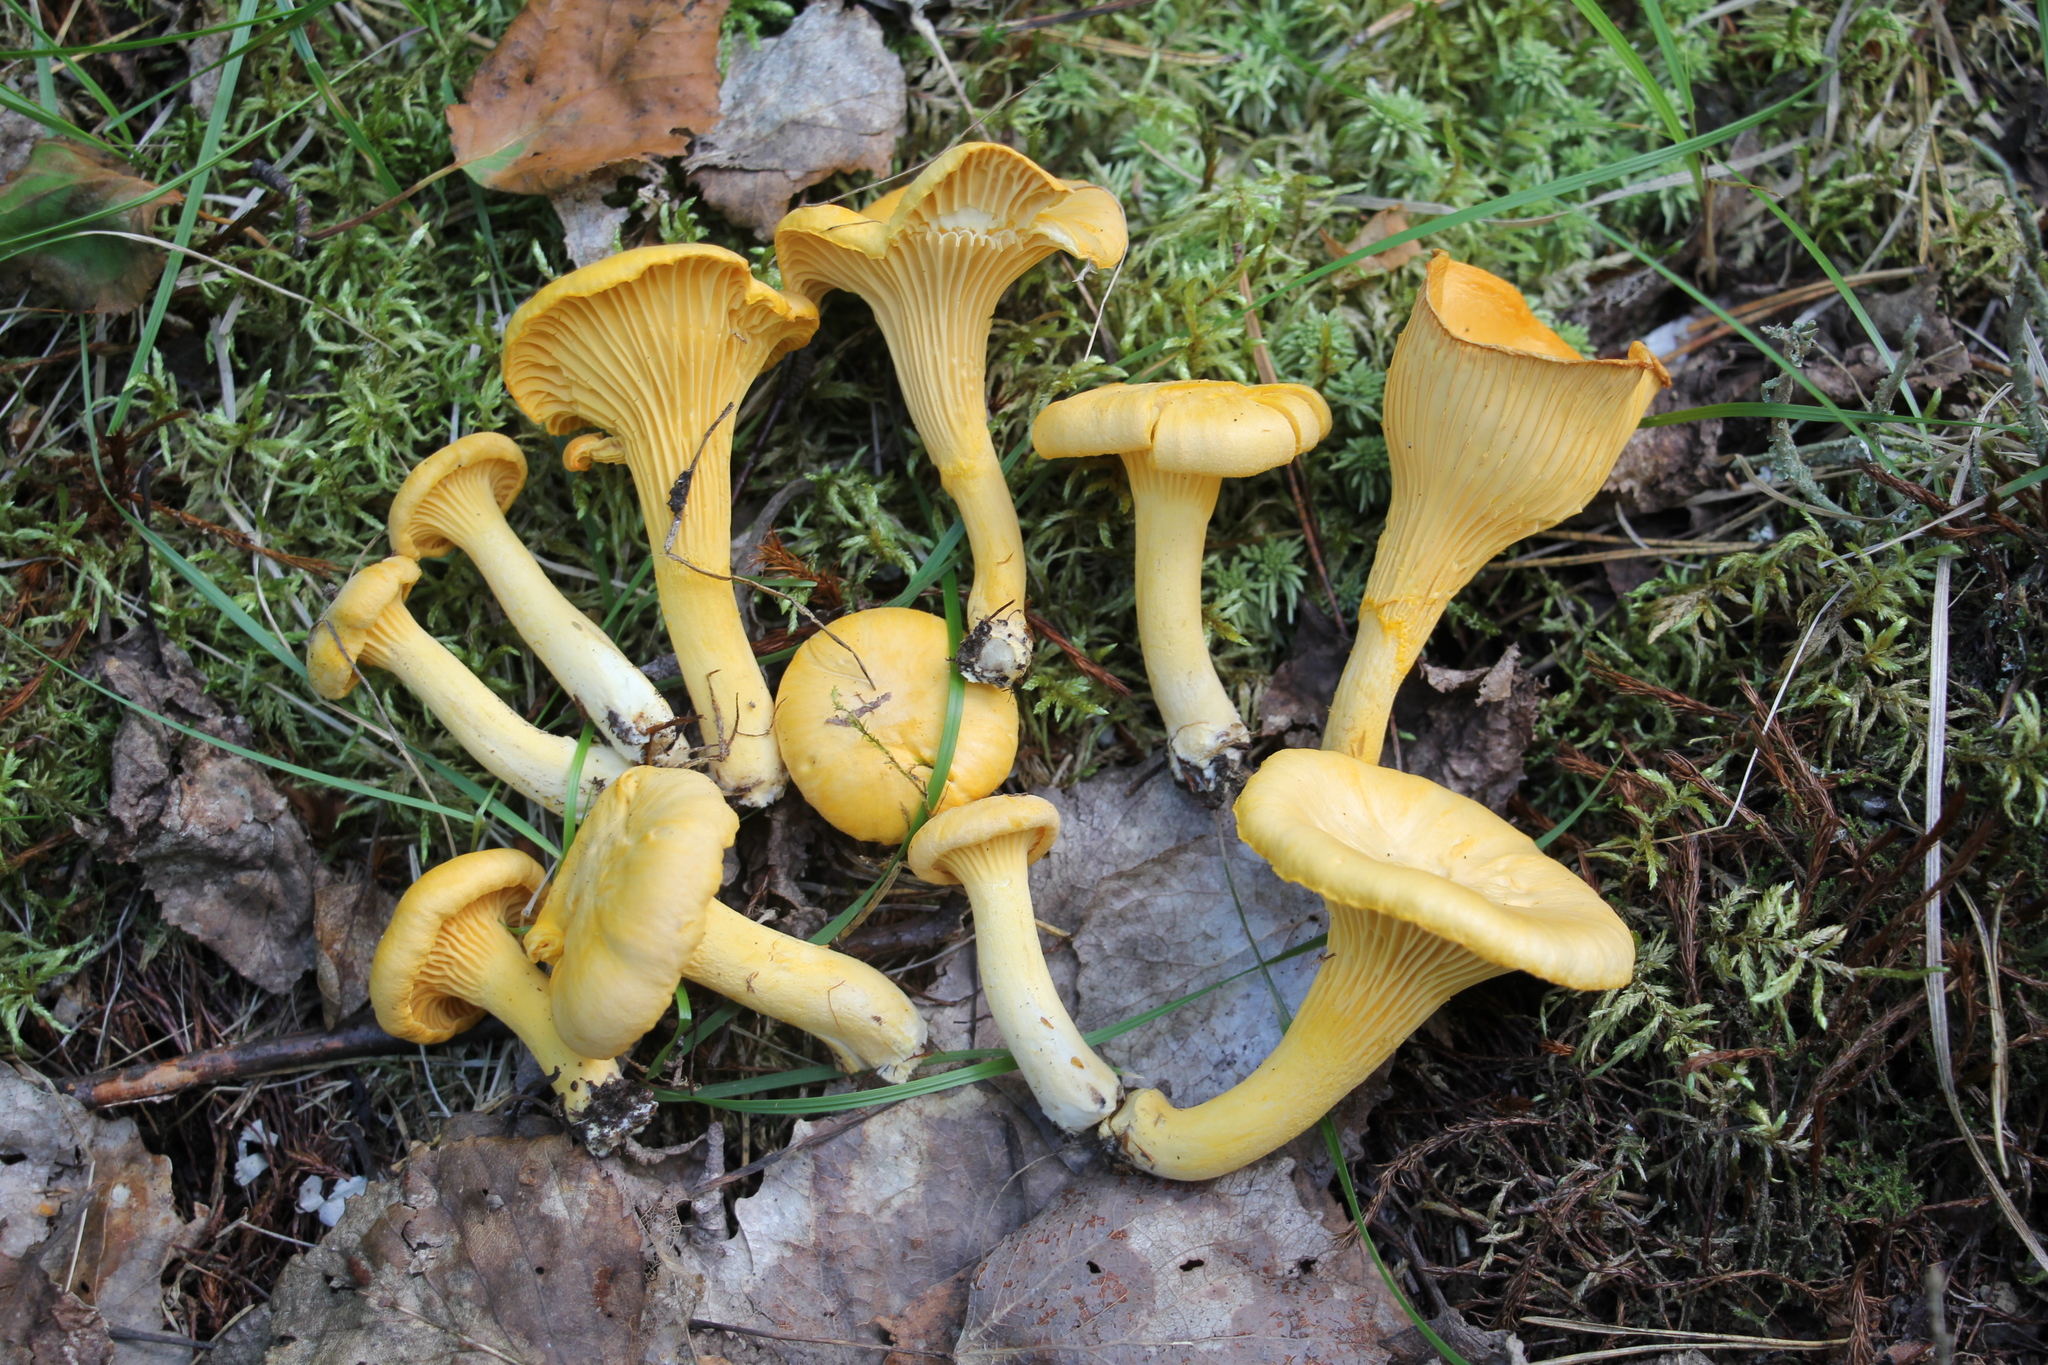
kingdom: Fungi
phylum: Basidiomycota
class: Agaricomycetes
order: Cantharellales
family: Hydnaceae
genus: Cantharellus
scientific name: Cantharellus cibarius
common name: Chanterelle
